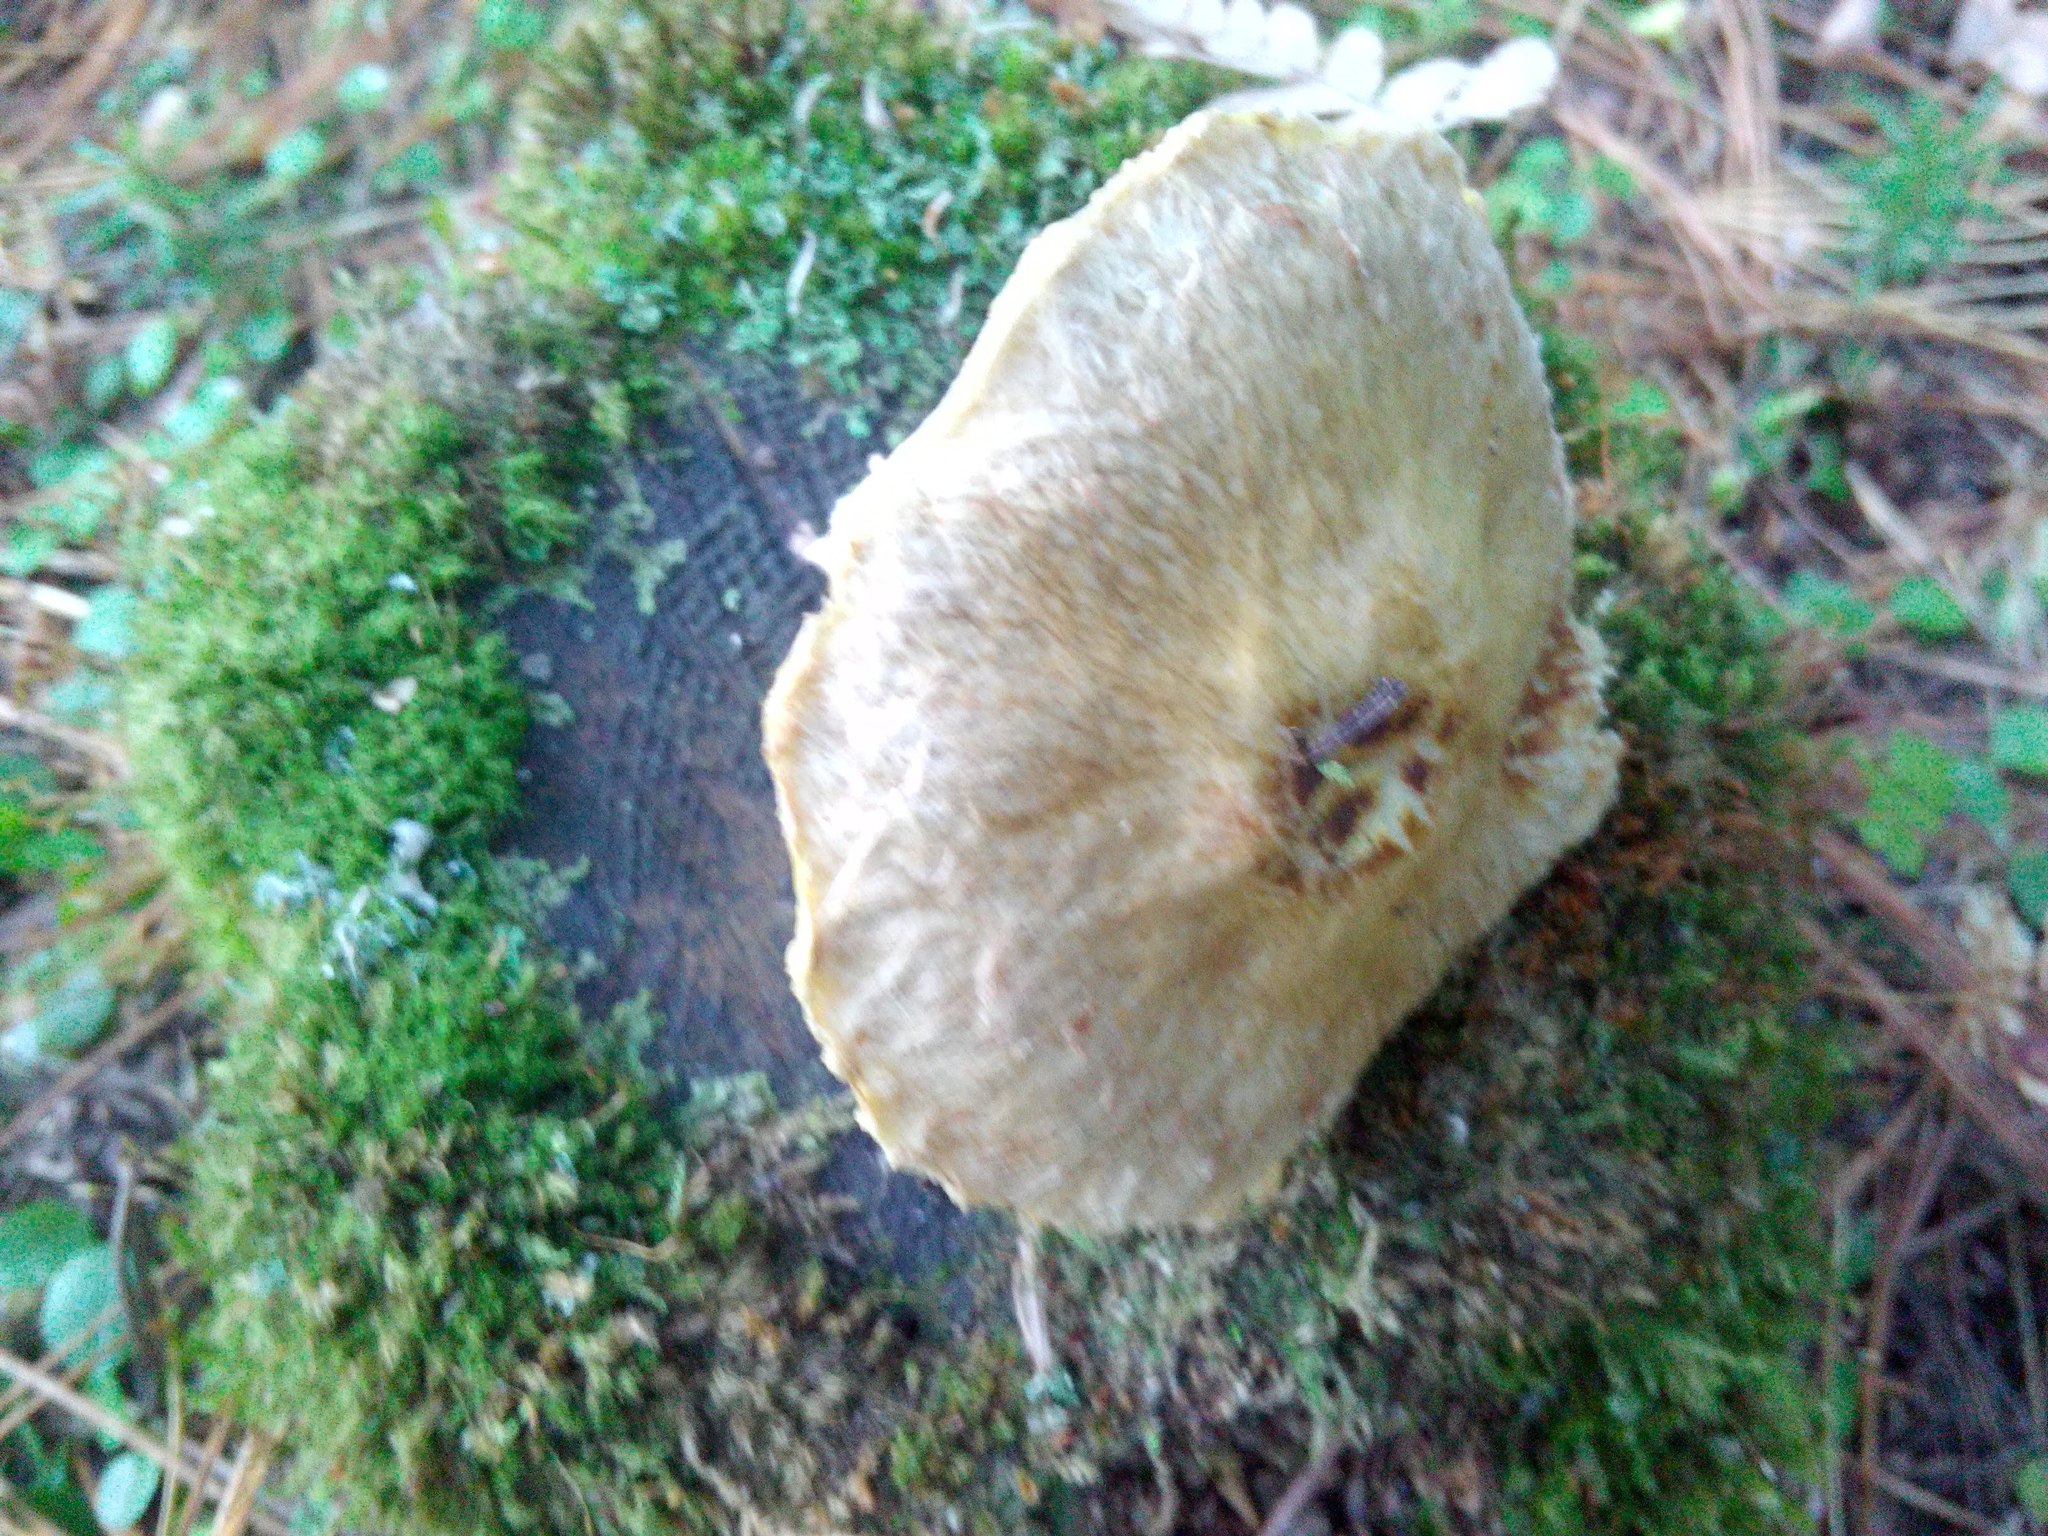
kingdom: Fungi
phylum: Basidiomycota
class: Agaricomycetes
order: Boletales
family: Suillaceae
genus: Suillus
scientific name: Suillus acidus
